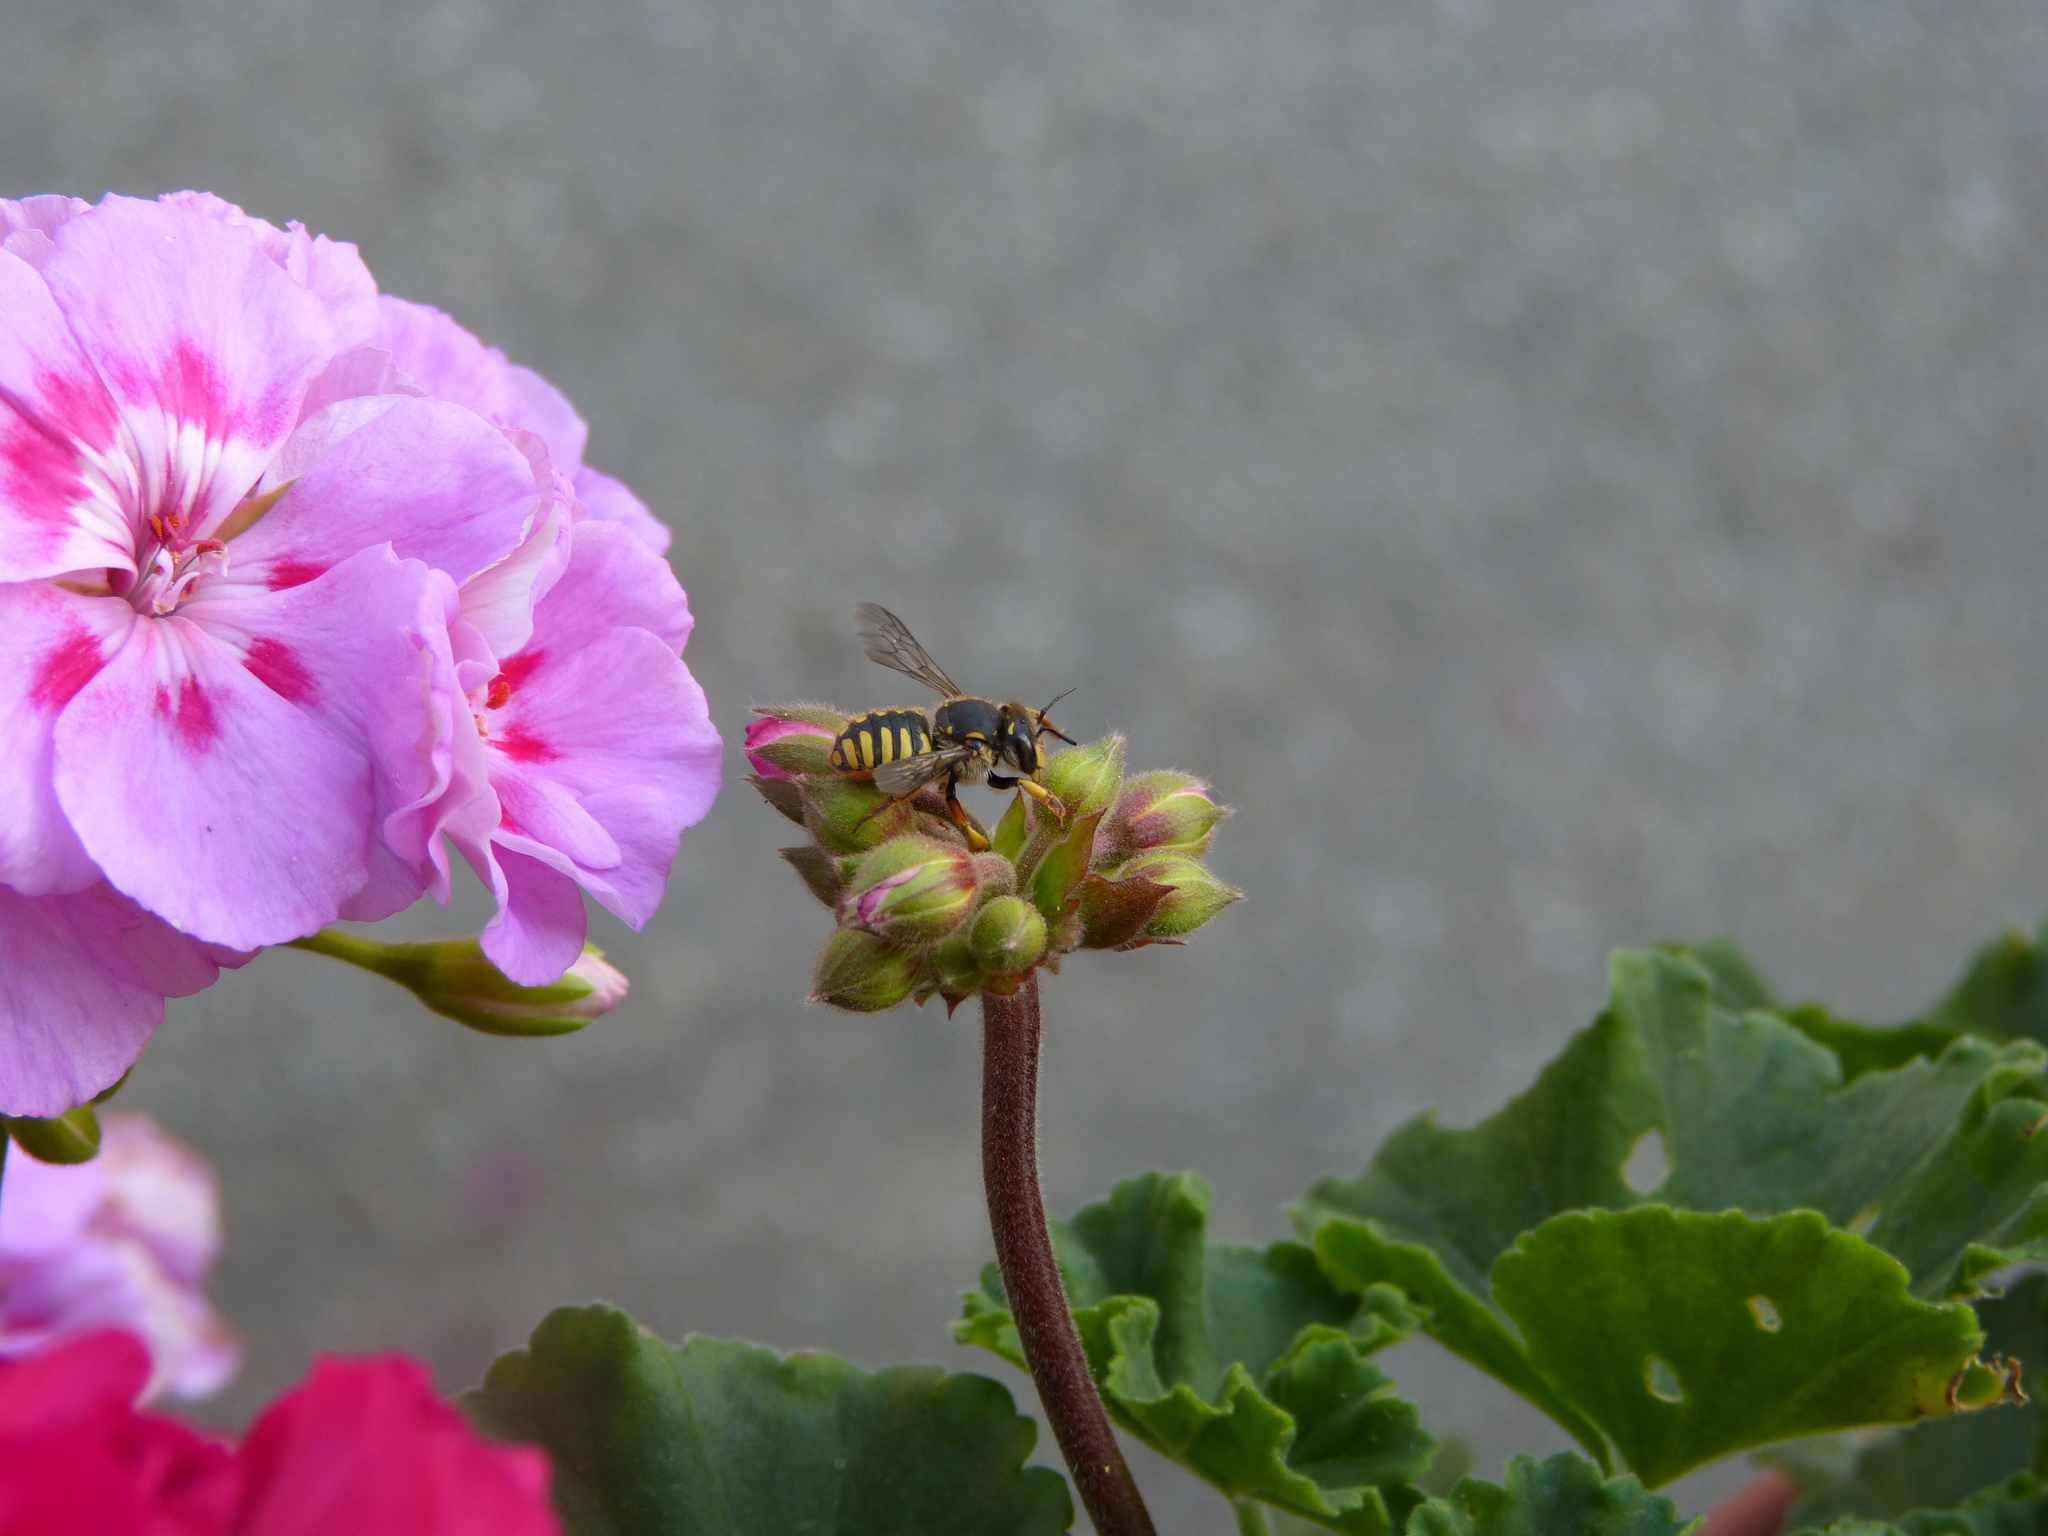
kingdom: Animalia
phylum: Arthropoda
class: Insecta
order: Hymenoptera
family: Megachilidae
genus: Anthidium
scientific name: Anthidium manicatum
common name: Wool carder bee
